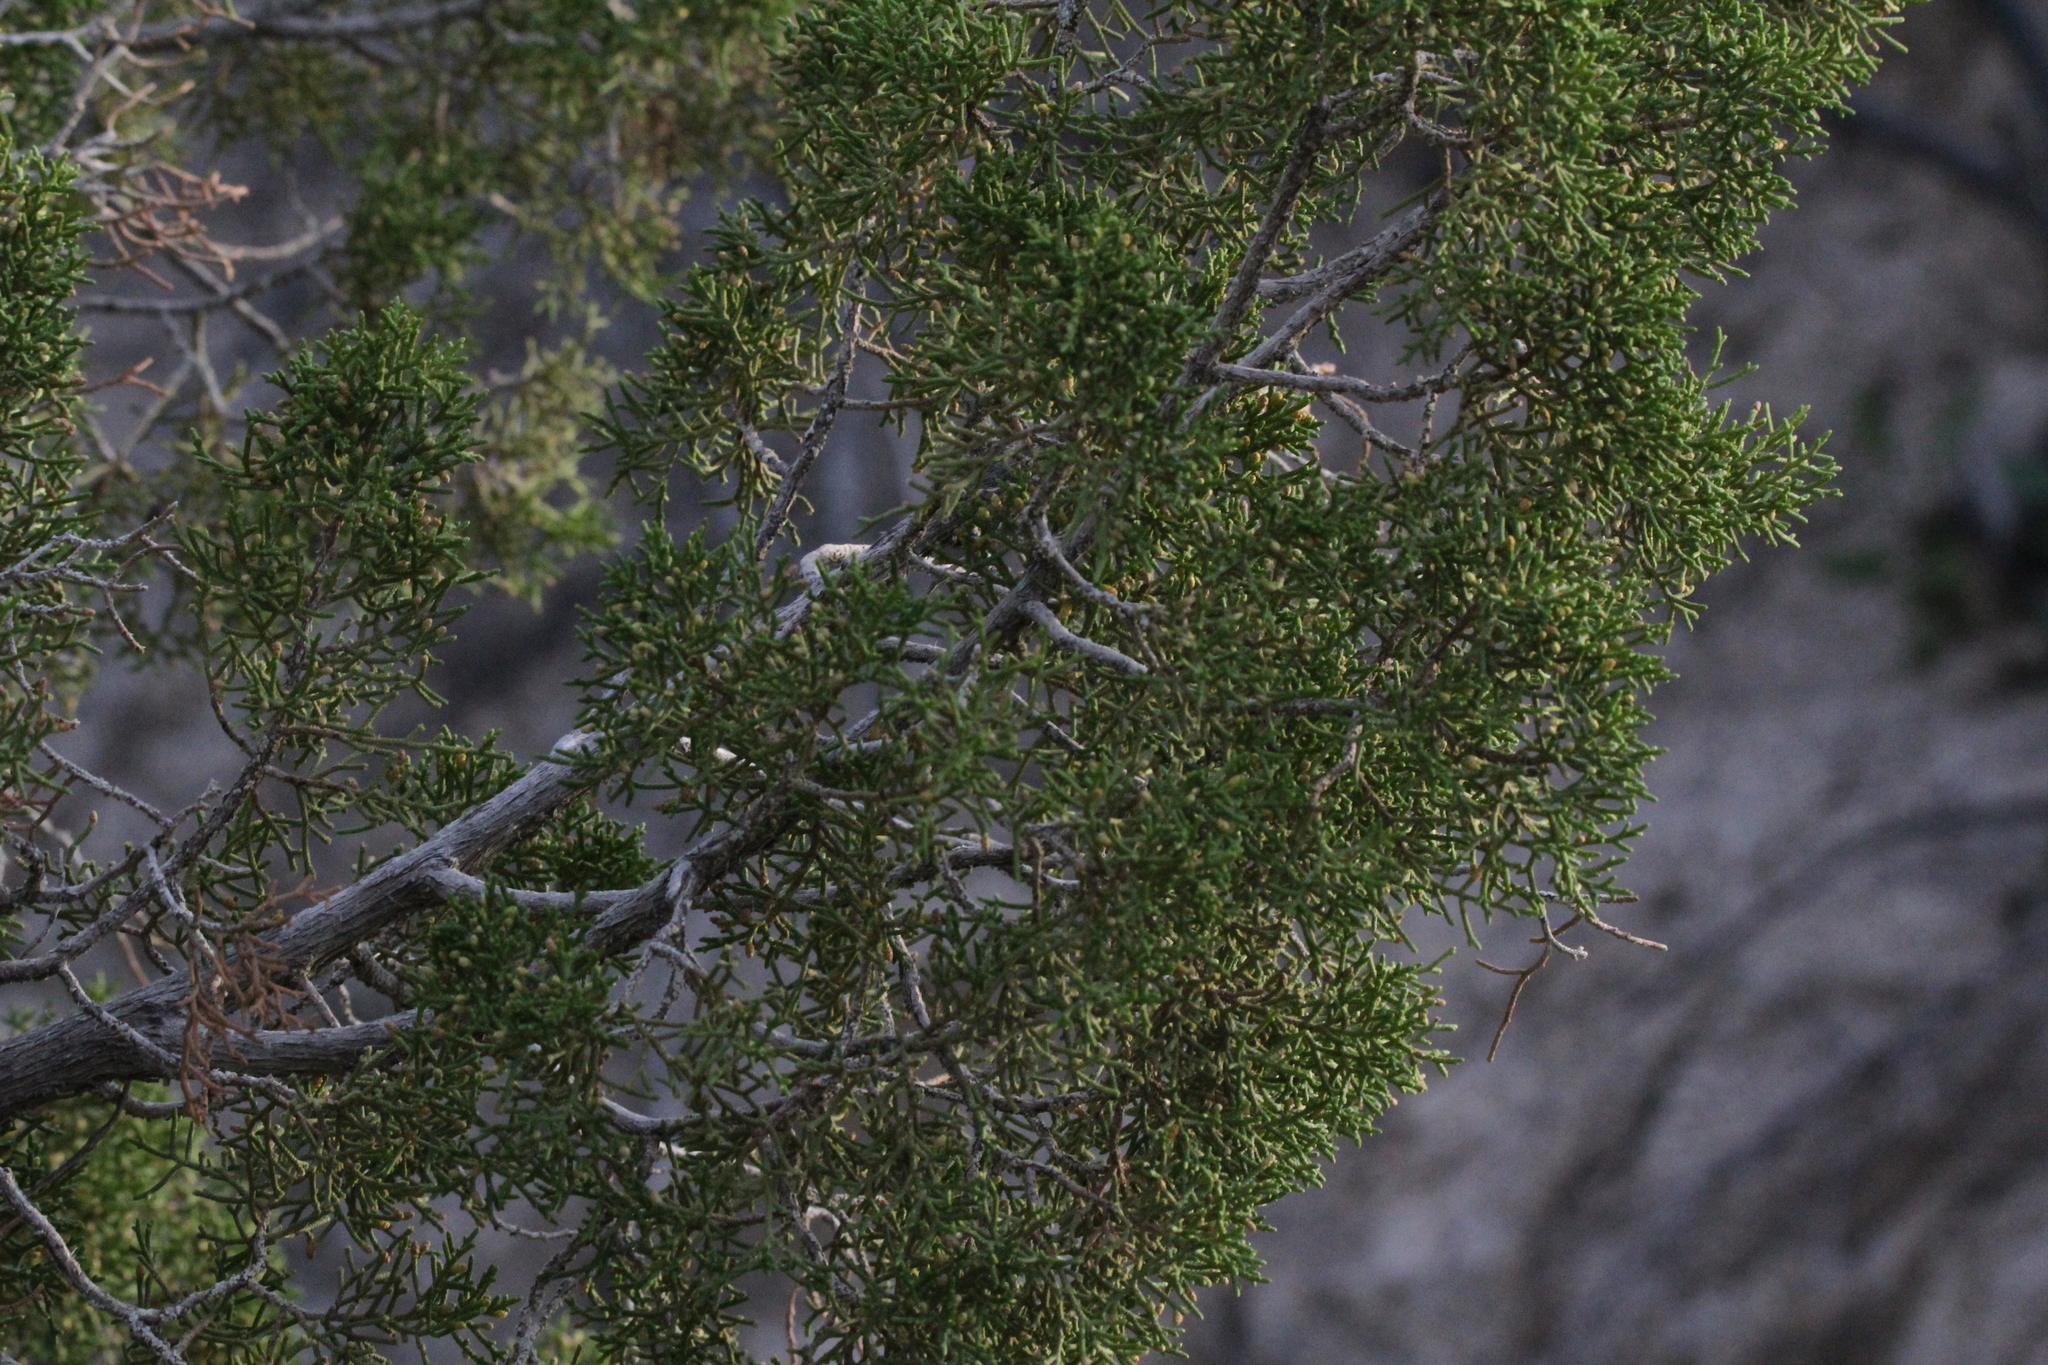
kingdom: Plantae
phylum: Tracheophyta
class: Pinopsida
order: Pinales
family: Cupressaceae
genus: Juniperus
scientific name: Juniperus californica
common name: California juniper
